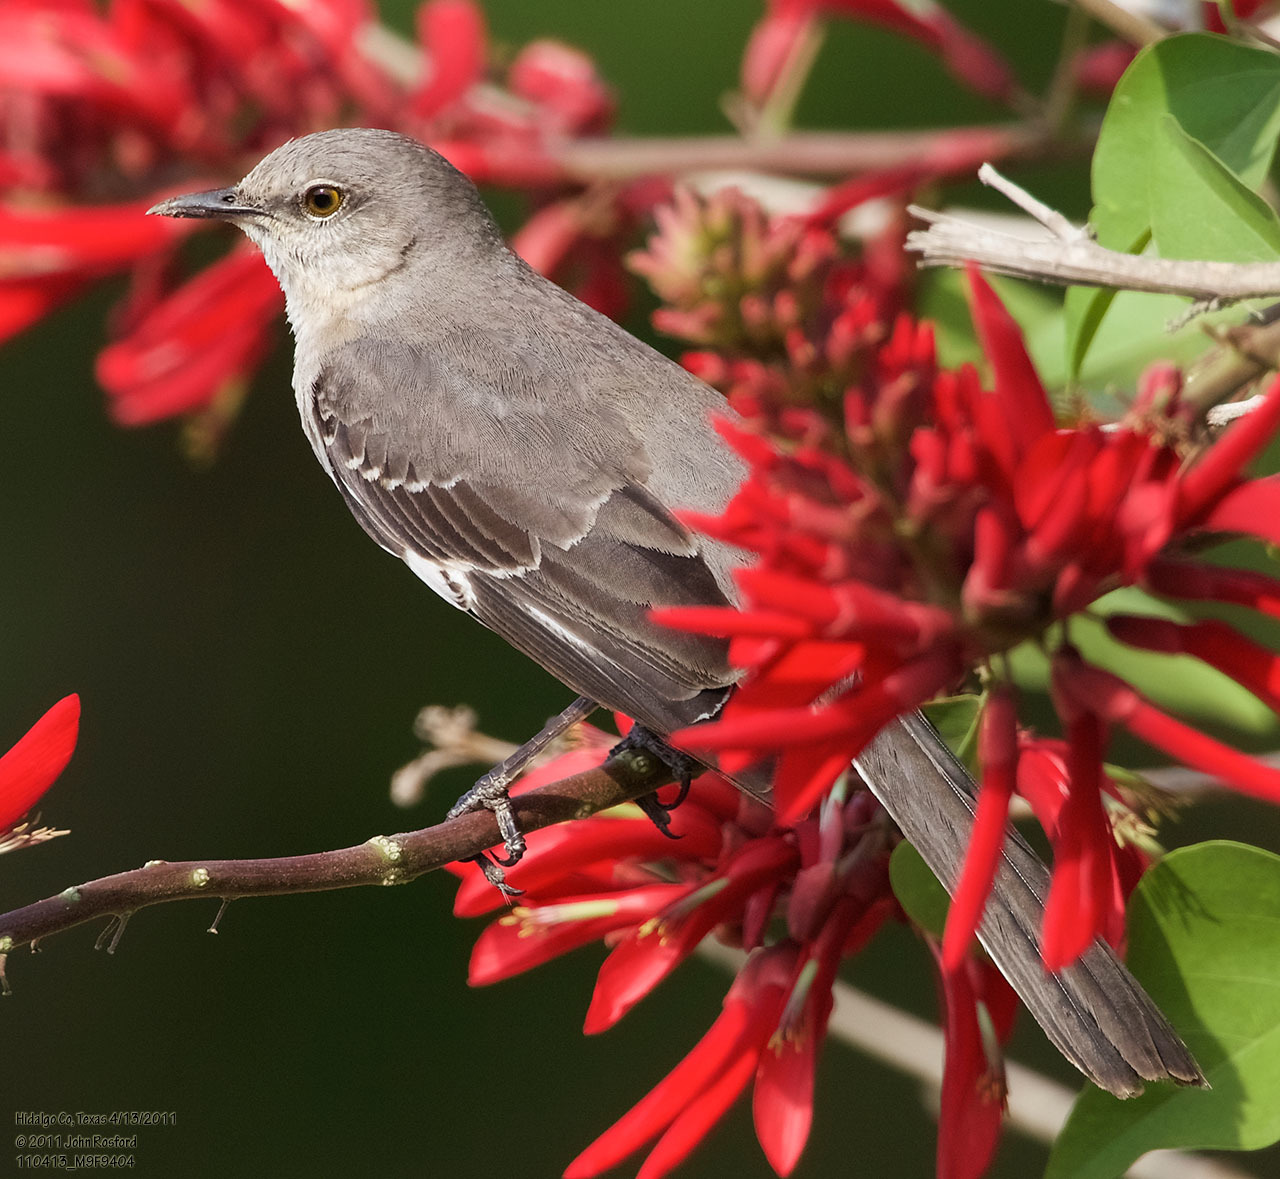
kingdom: Animalia
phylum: Chordata
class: Aves
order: Passeriformes
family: Mimidae
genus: Mimus
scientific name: Mimus polyglottos
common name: Northern mockingbird
